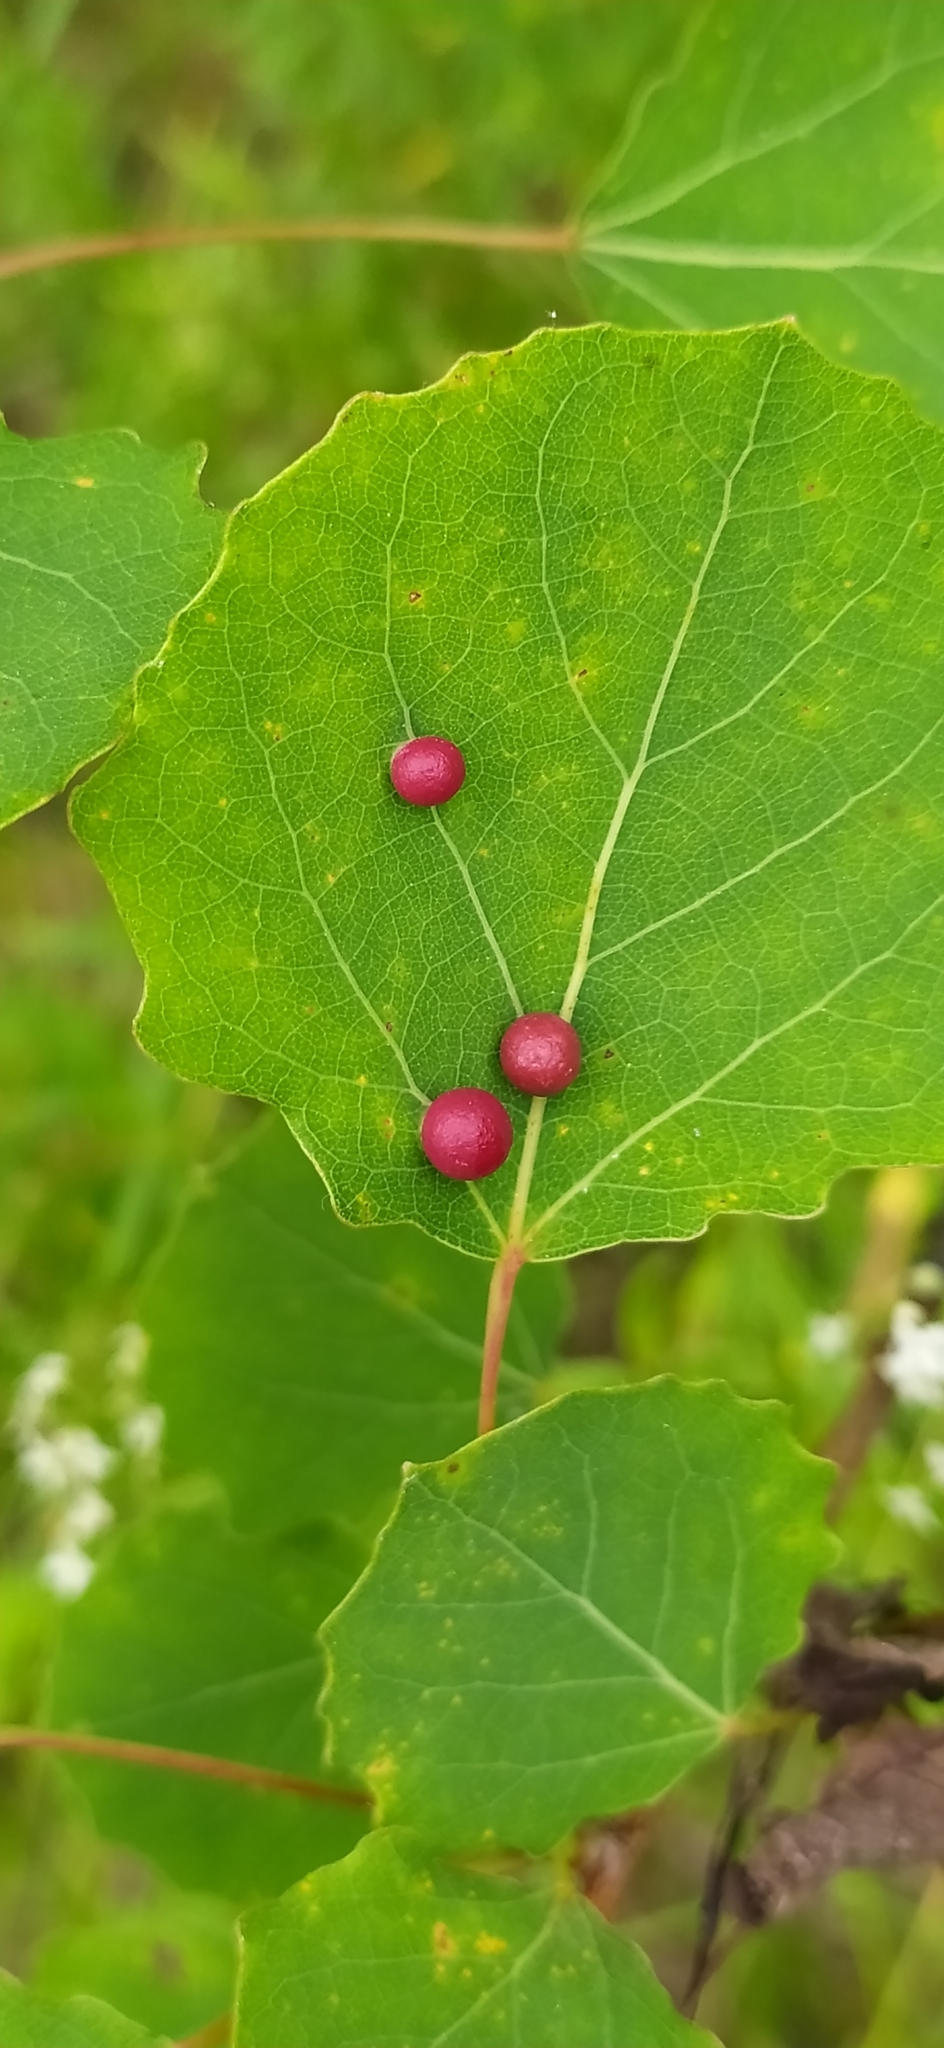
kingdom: Animalia
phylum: Arthropoda
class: Insecta
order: Diptera
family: Cecidomyiidae
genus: Harmandiola
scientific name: Harmandiola tremulae
